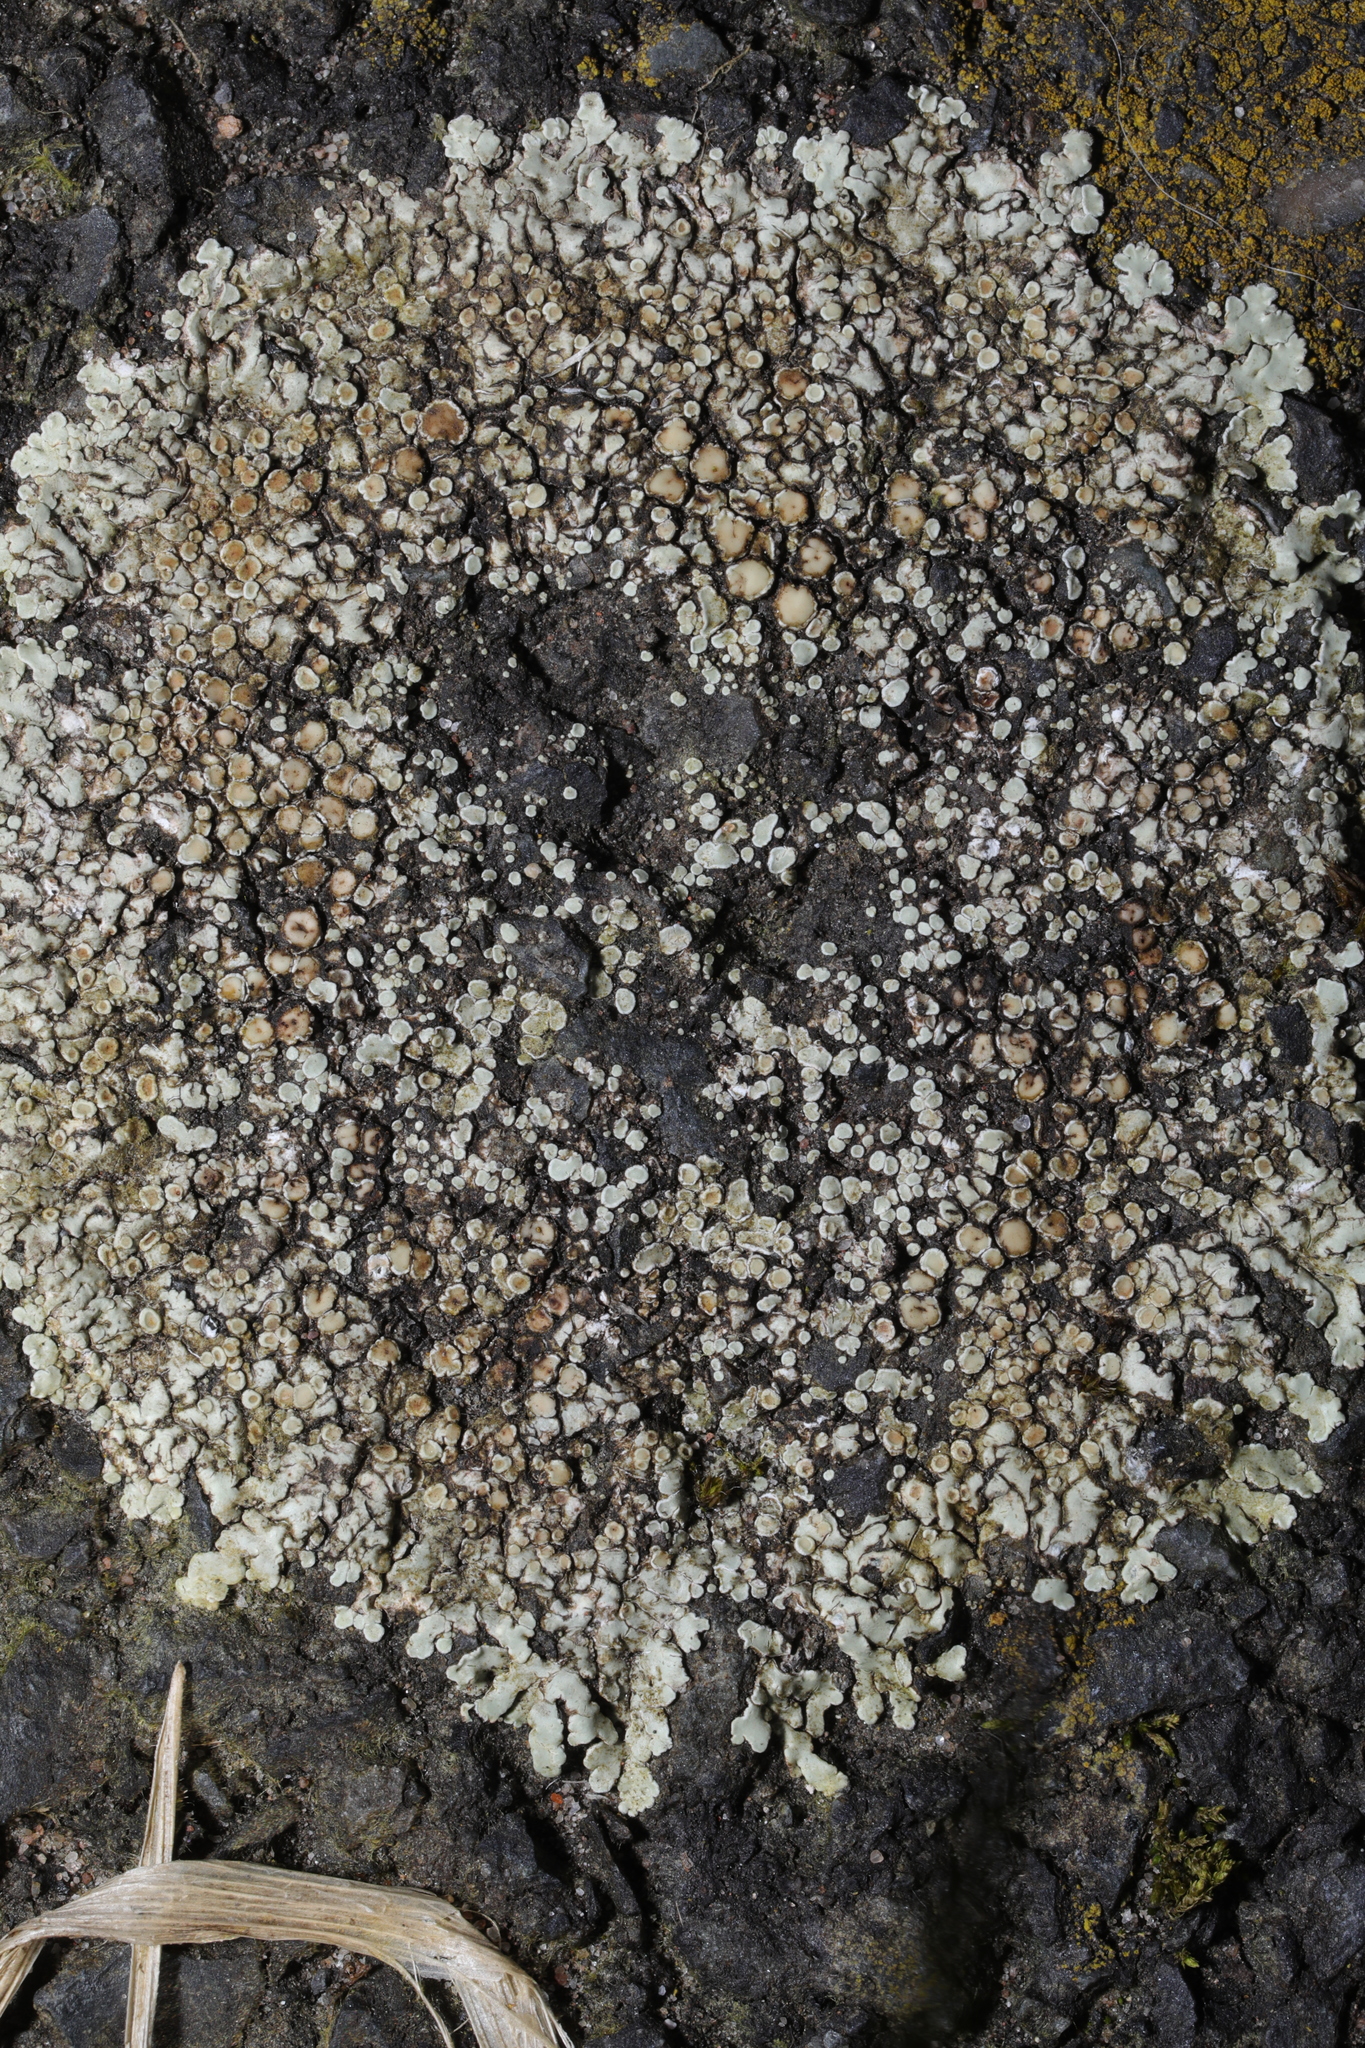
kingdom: Fungi
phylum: Ascomycota
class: Lecanoromycetes
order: Lecanorales
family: Lecanoraceae
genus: Protoparmeliopsis
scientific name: Protoparmeliopsis muralis
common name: Stonewall rim lichen
